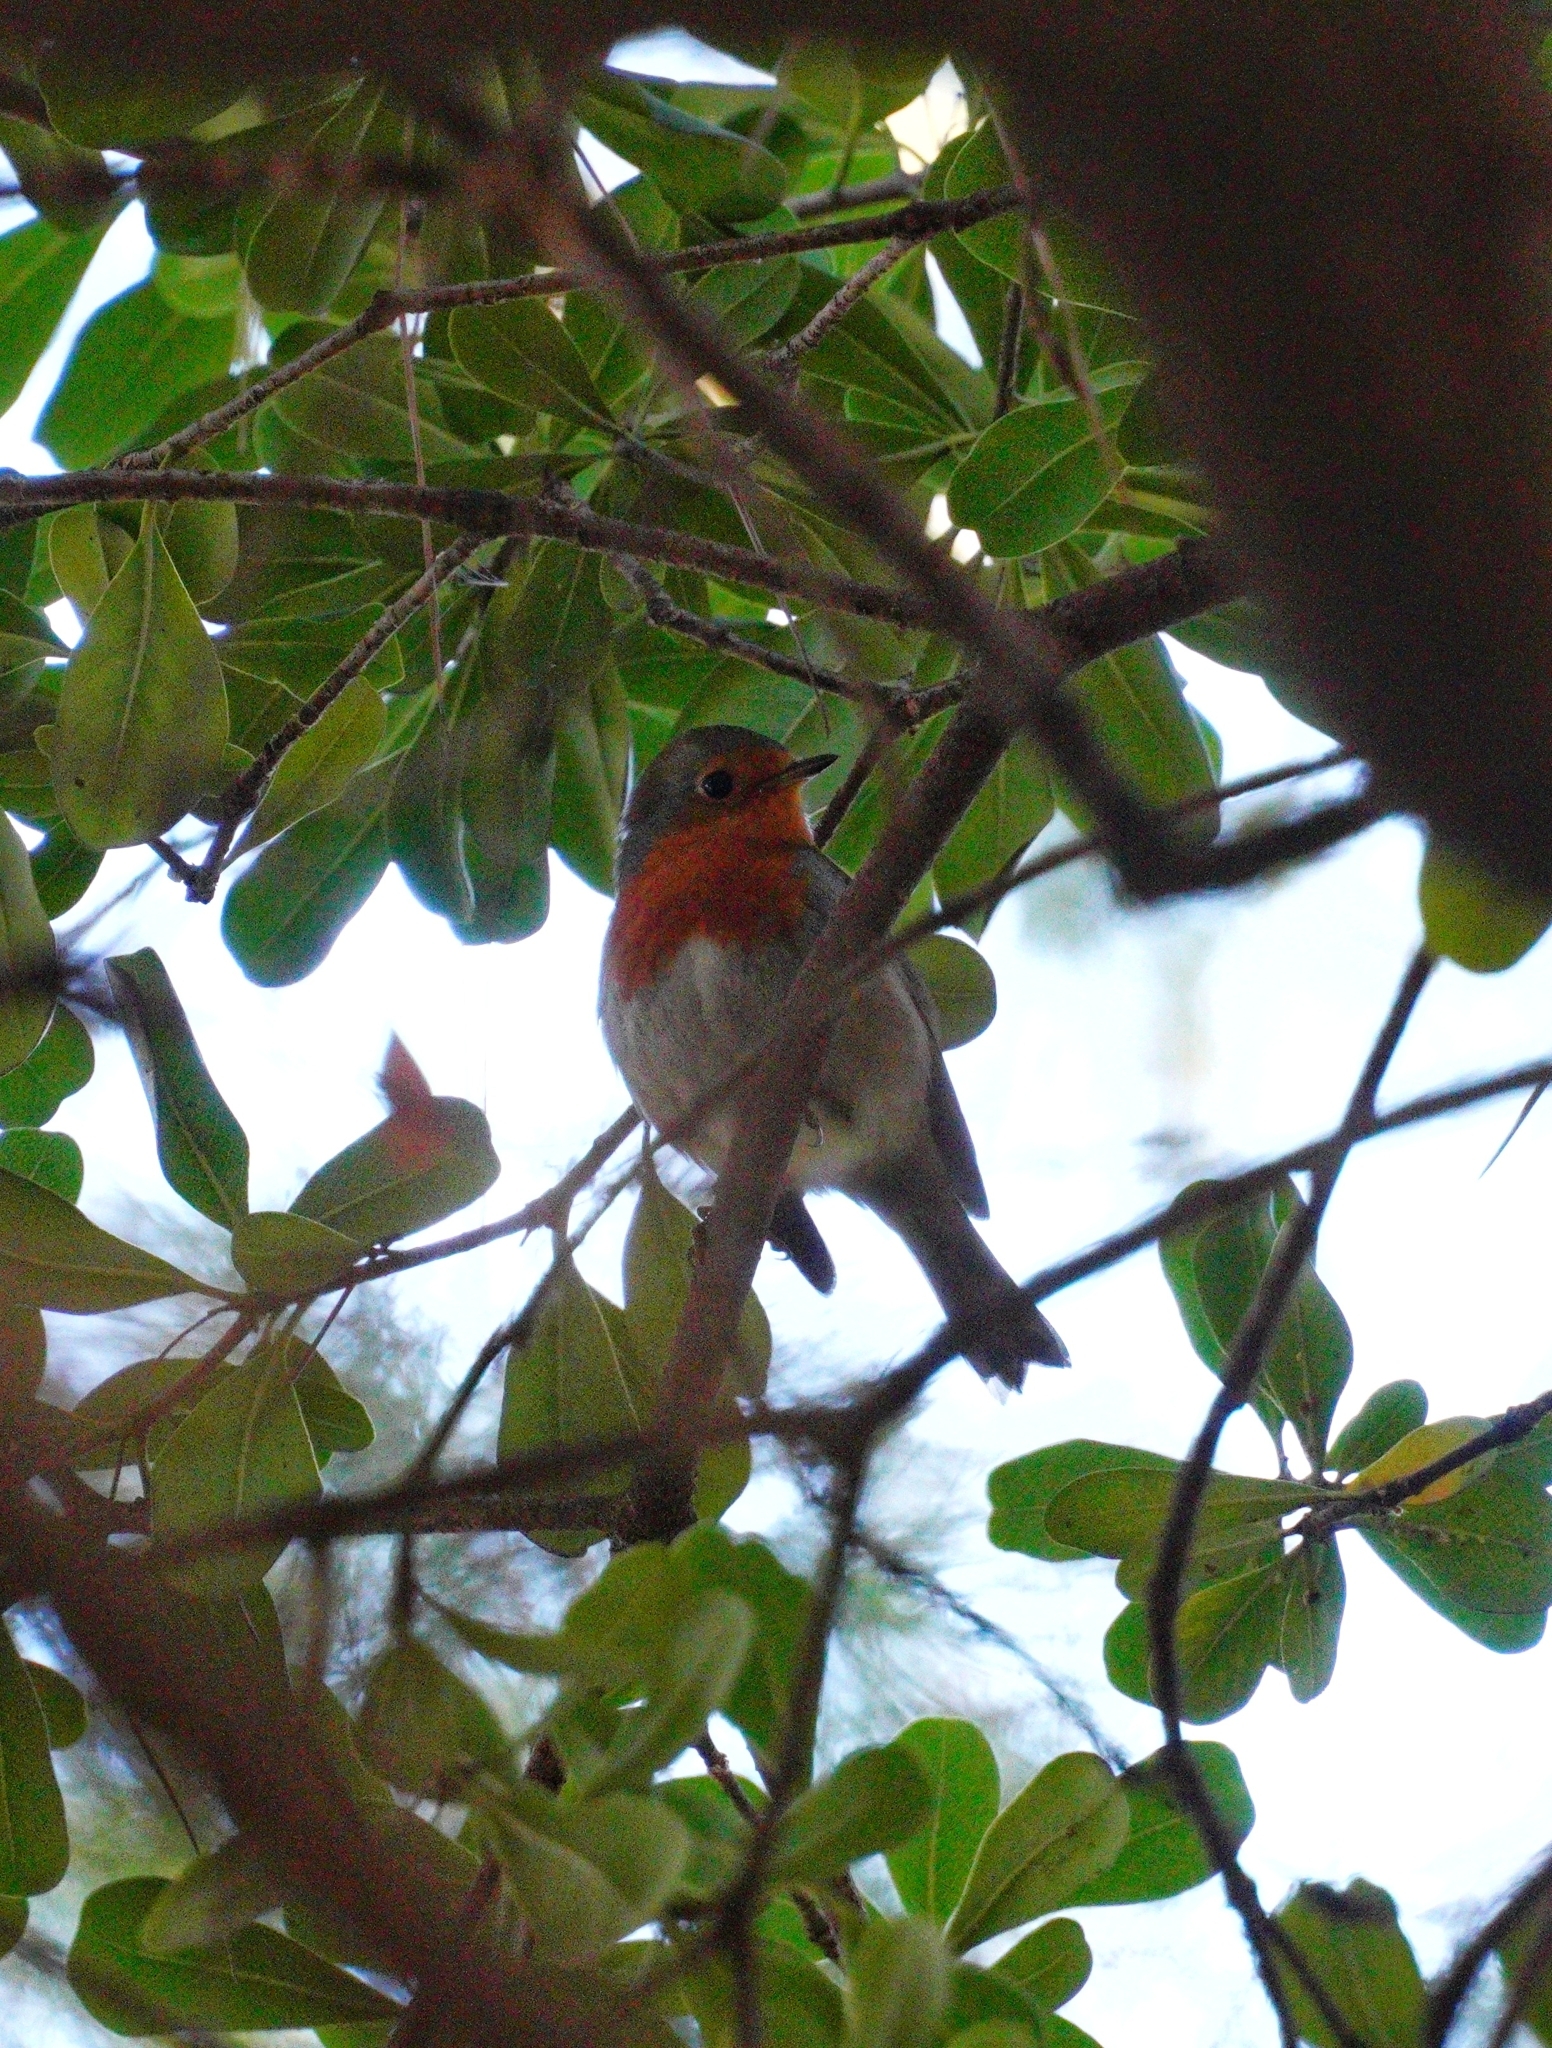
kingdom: Animalia
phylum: Chordata
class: Aves
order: Passeriformes
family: Muscicapidae
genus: Erithacus
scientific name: Erithacus rubecula
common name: European robin
